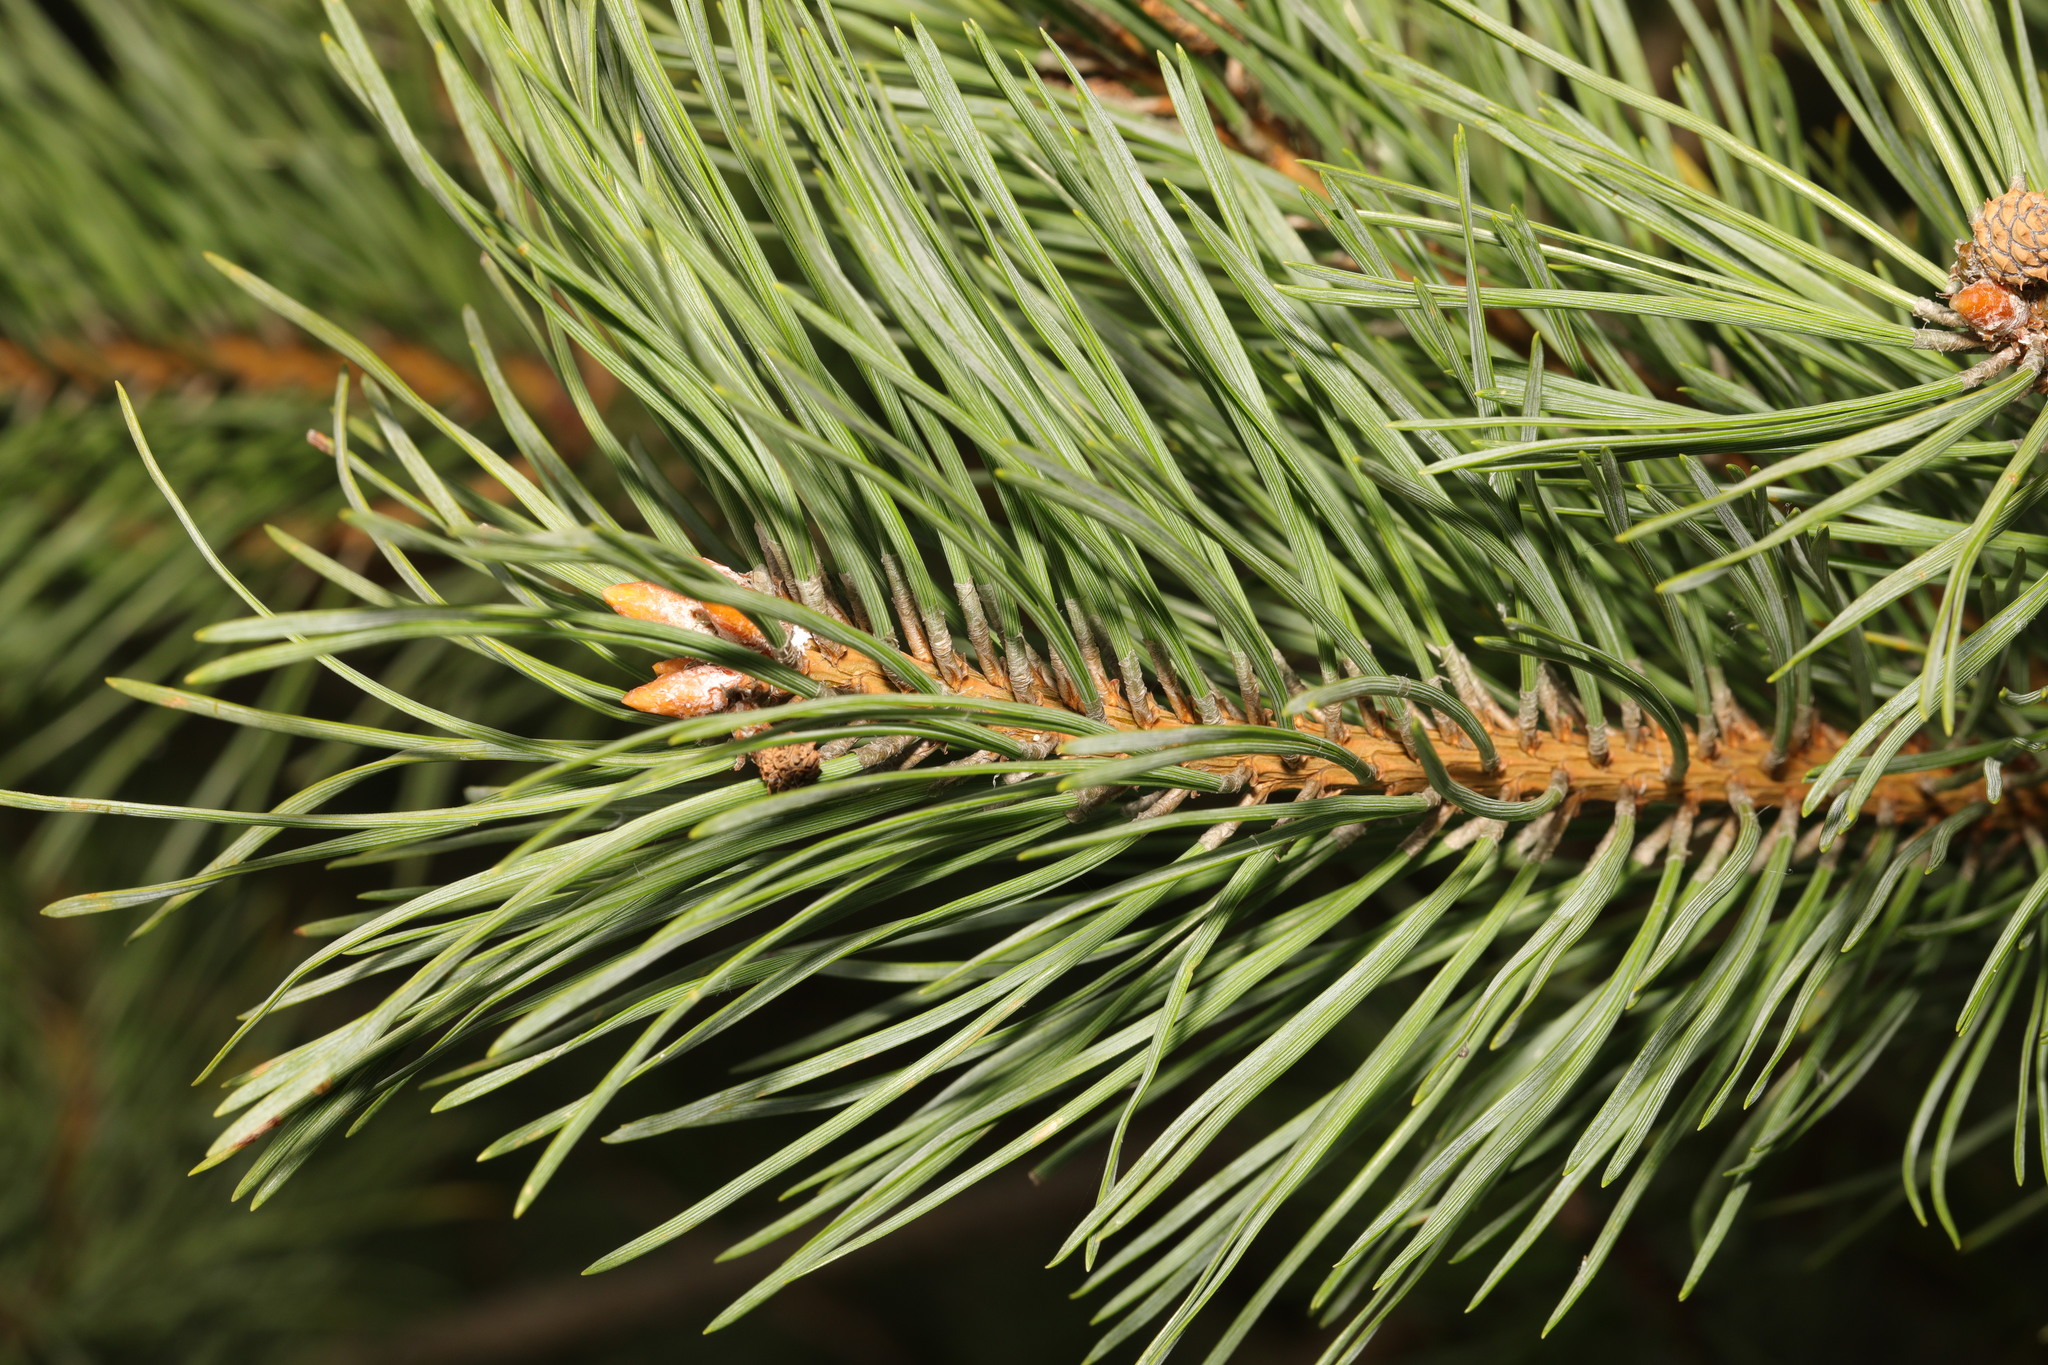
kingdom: Plantae
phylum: Tracheophyta
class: Pinopsida
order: Pinales
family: Pinaceae
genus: Pinus
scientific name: Pinus sylvestris
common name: Scots pine
